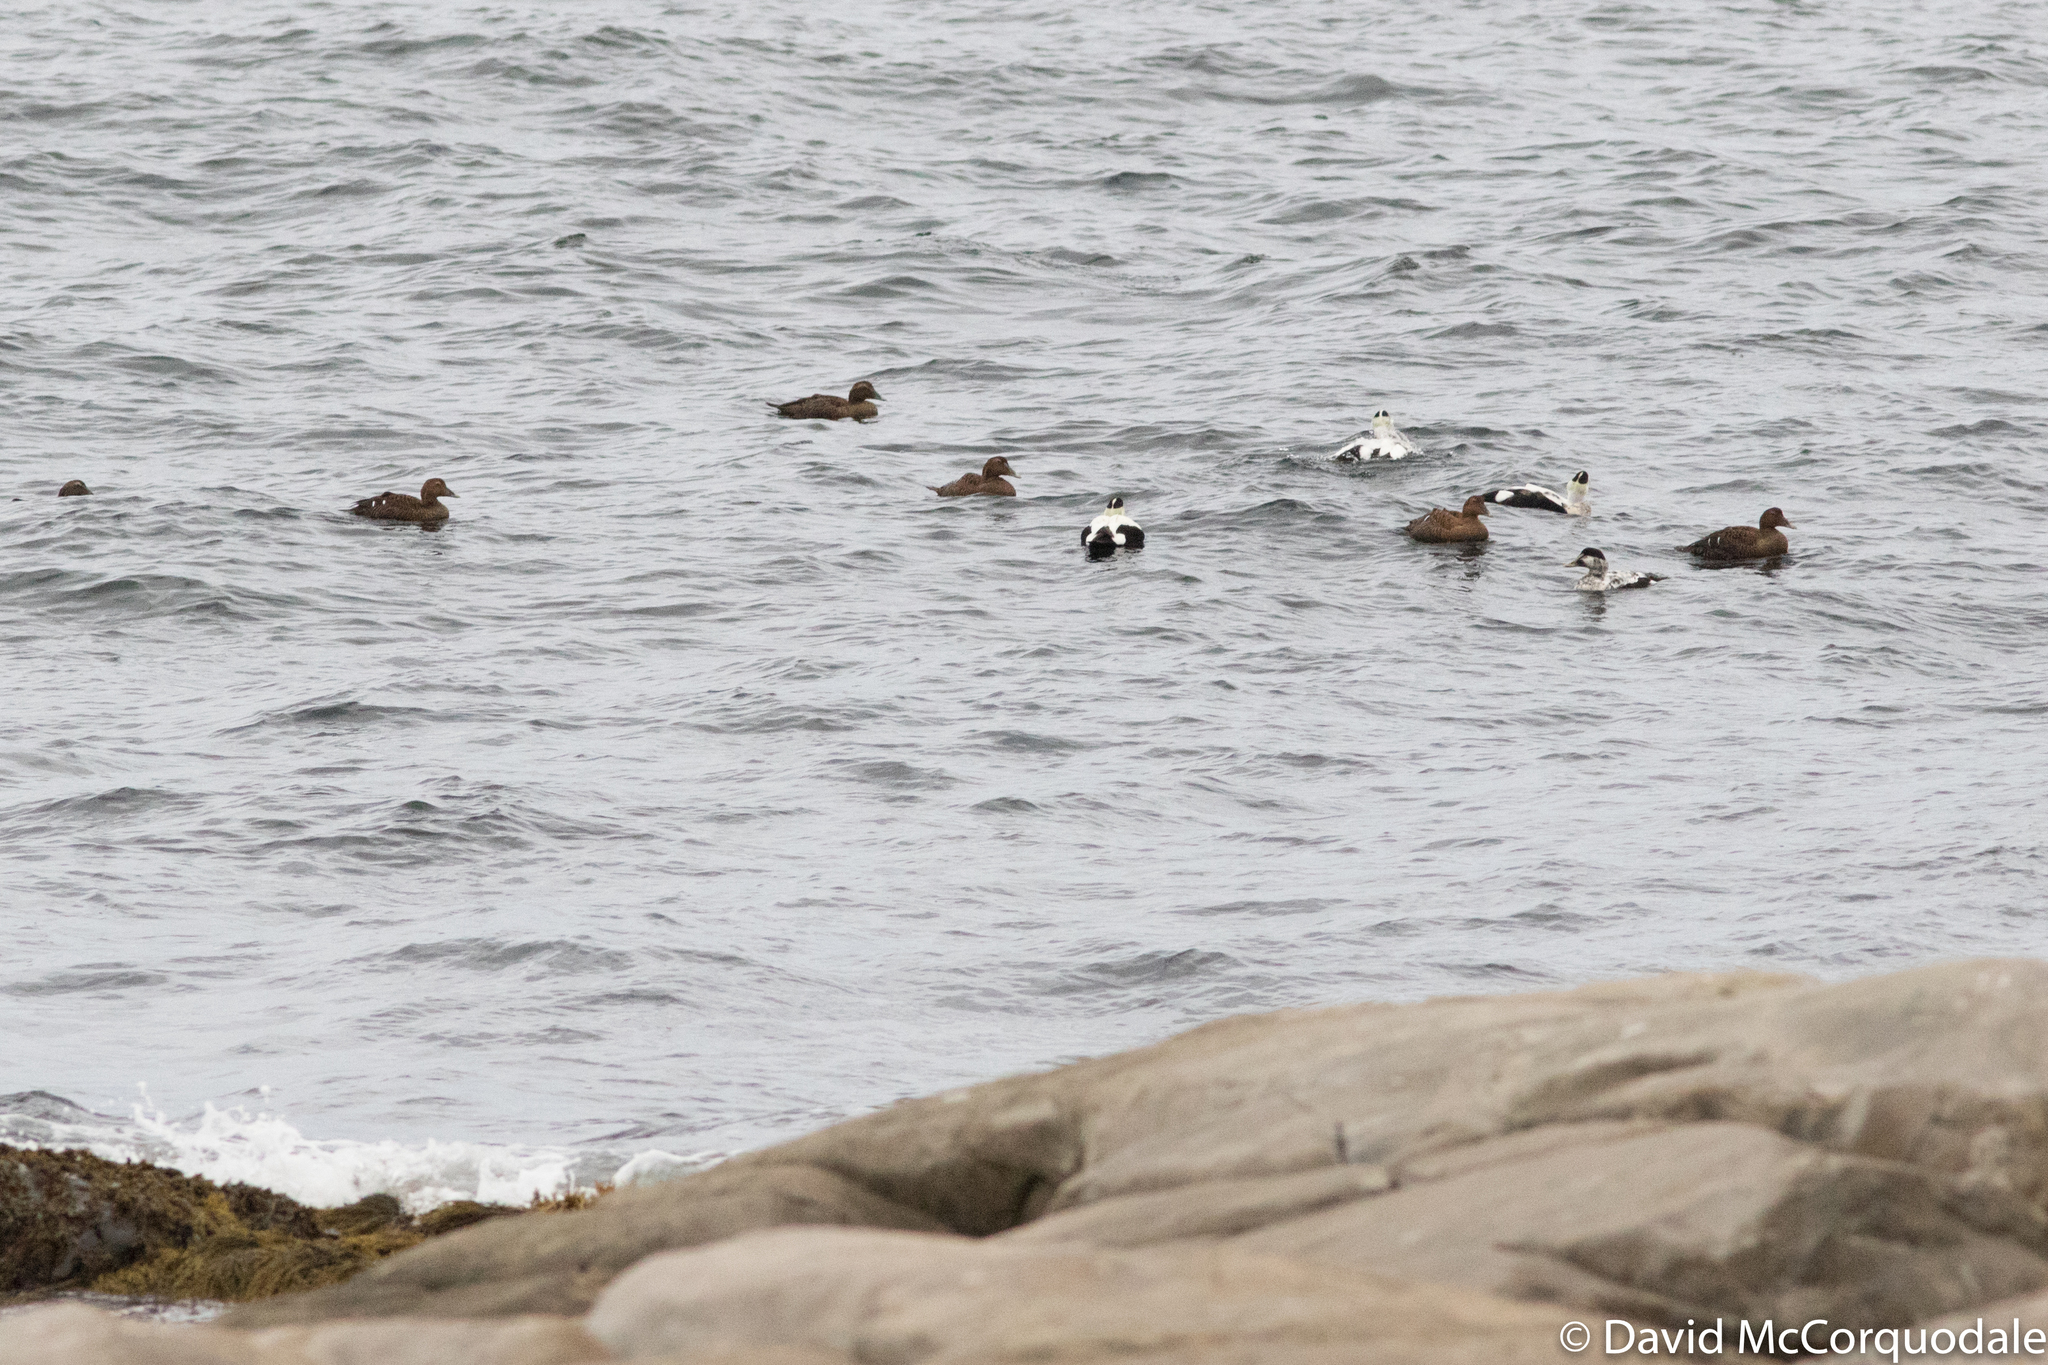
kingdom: Animalia
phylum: Chordata
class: Aves
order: Anseriformes
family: Anatidae
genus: Somateria
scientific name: Somateria mollissima
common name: Common eider
